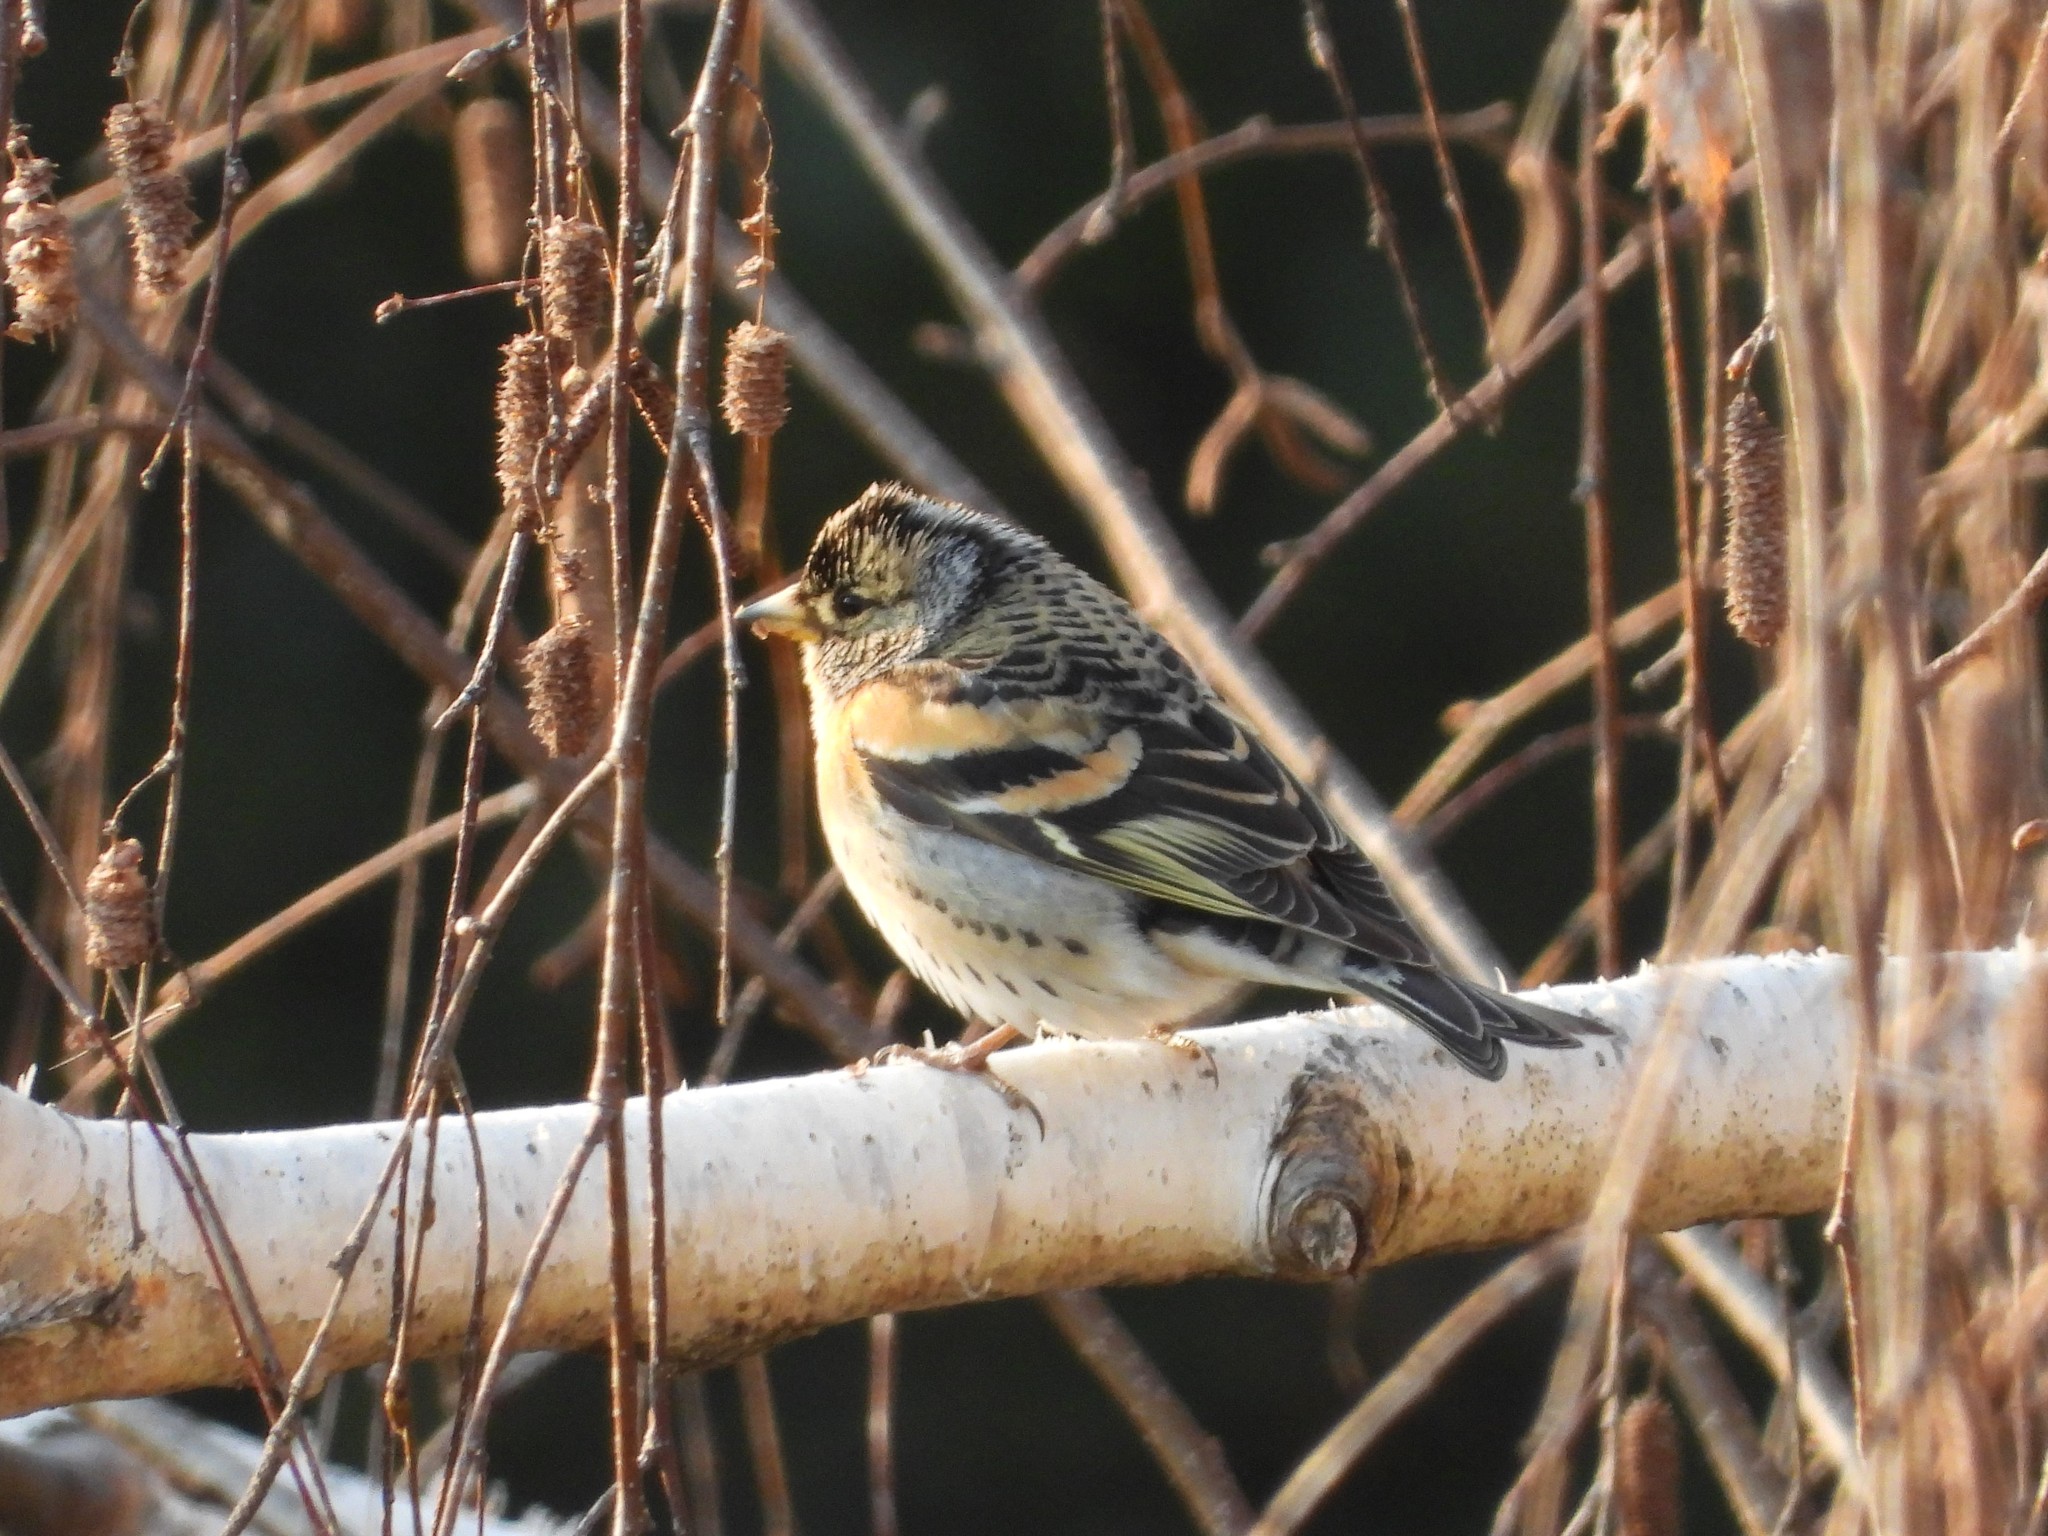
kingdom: Animalia
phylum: Chordata
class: Aves
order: Passeriformes
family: Fringillidae
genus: Fringilla
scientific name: Fringilla montifringilla
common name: Brambling
